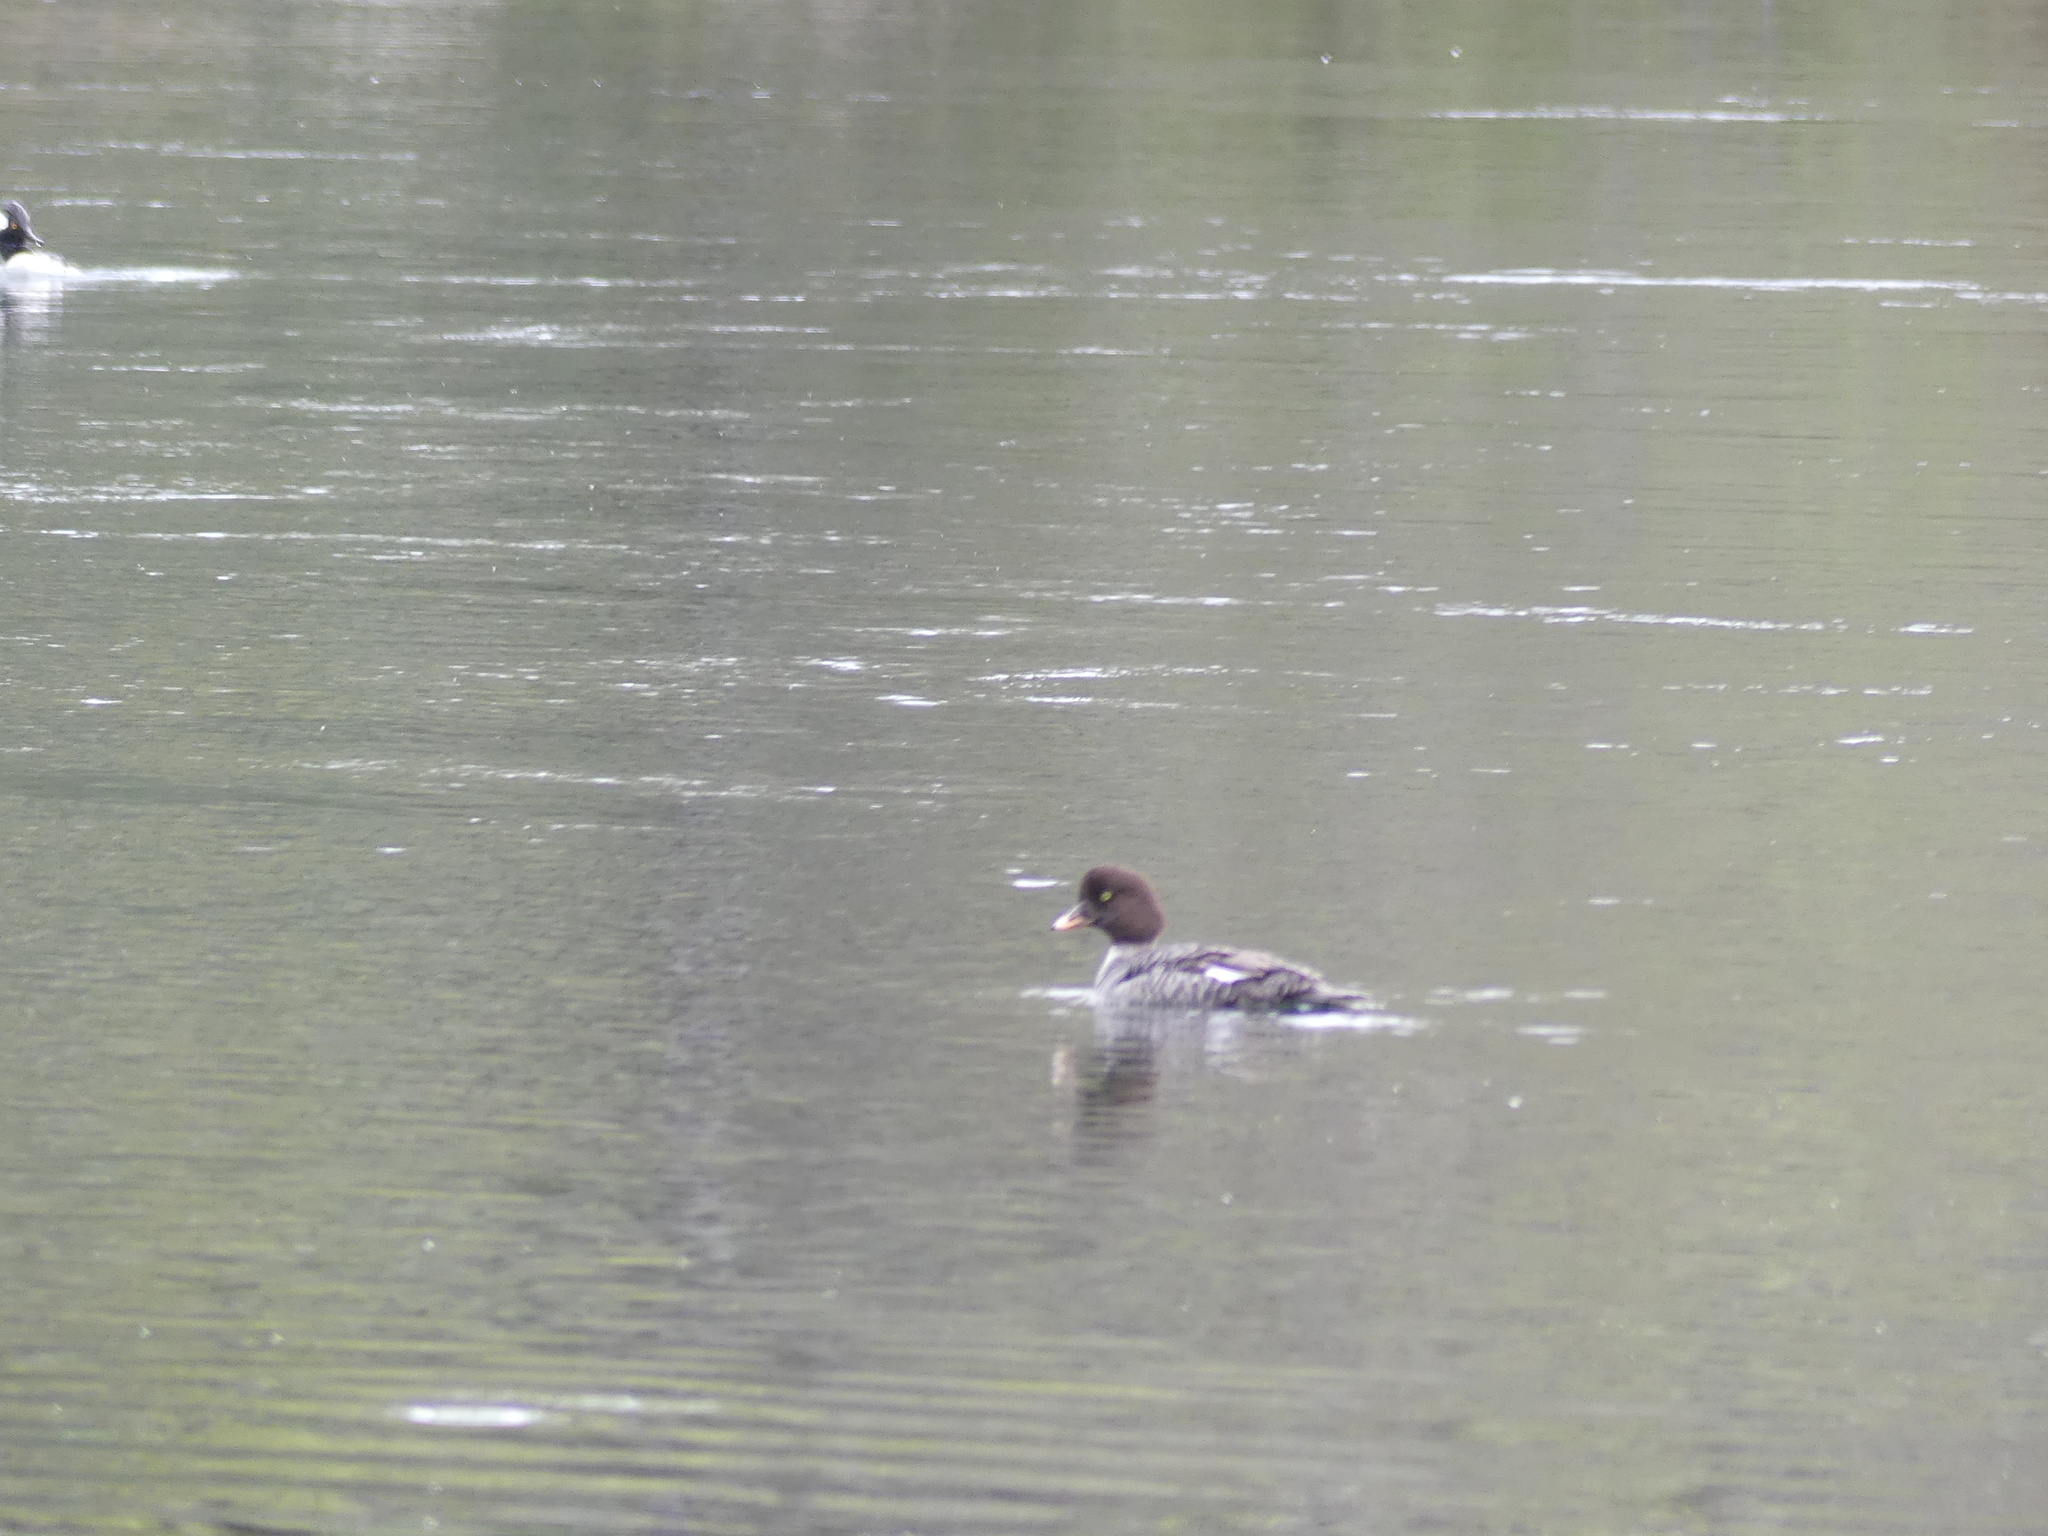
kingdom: Animalia
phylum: Chordata
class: Aves
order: Anseriformes
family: Anatidae
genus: Bucephala
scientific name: Bucephala islandica
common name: Barrow's goldeneye
